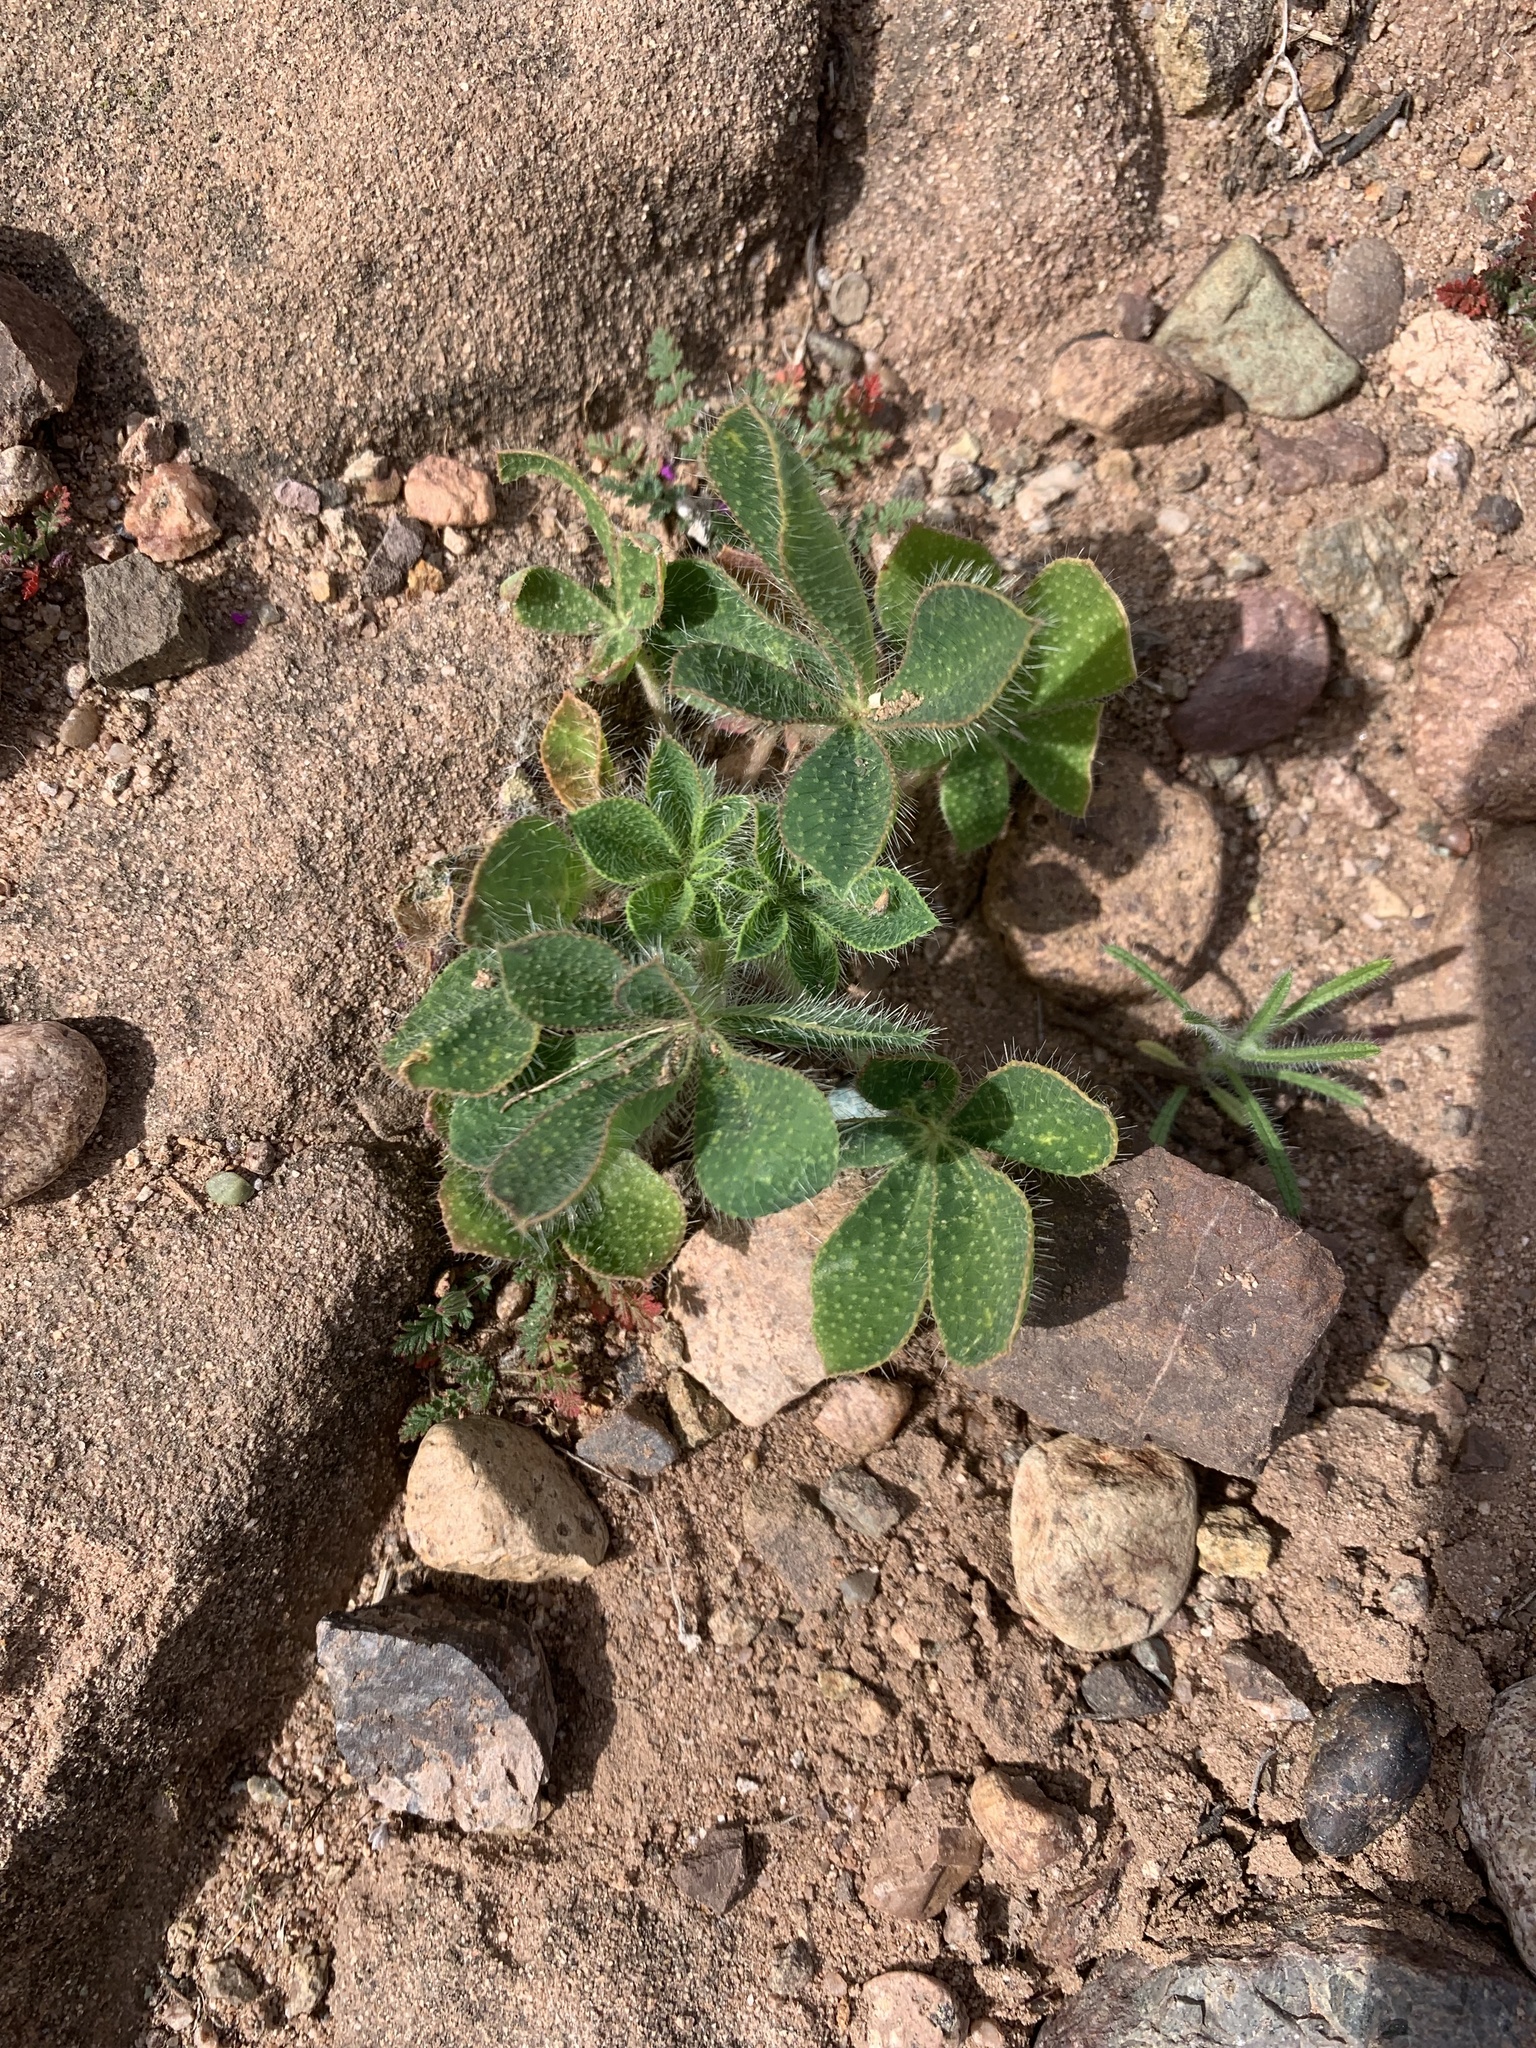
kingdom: Plantae
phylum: Tracheophyta
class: Magnoliopsida
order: Fabales
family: Fabaceae
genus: Lupinus
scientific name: Lupinus hirsutissimus
